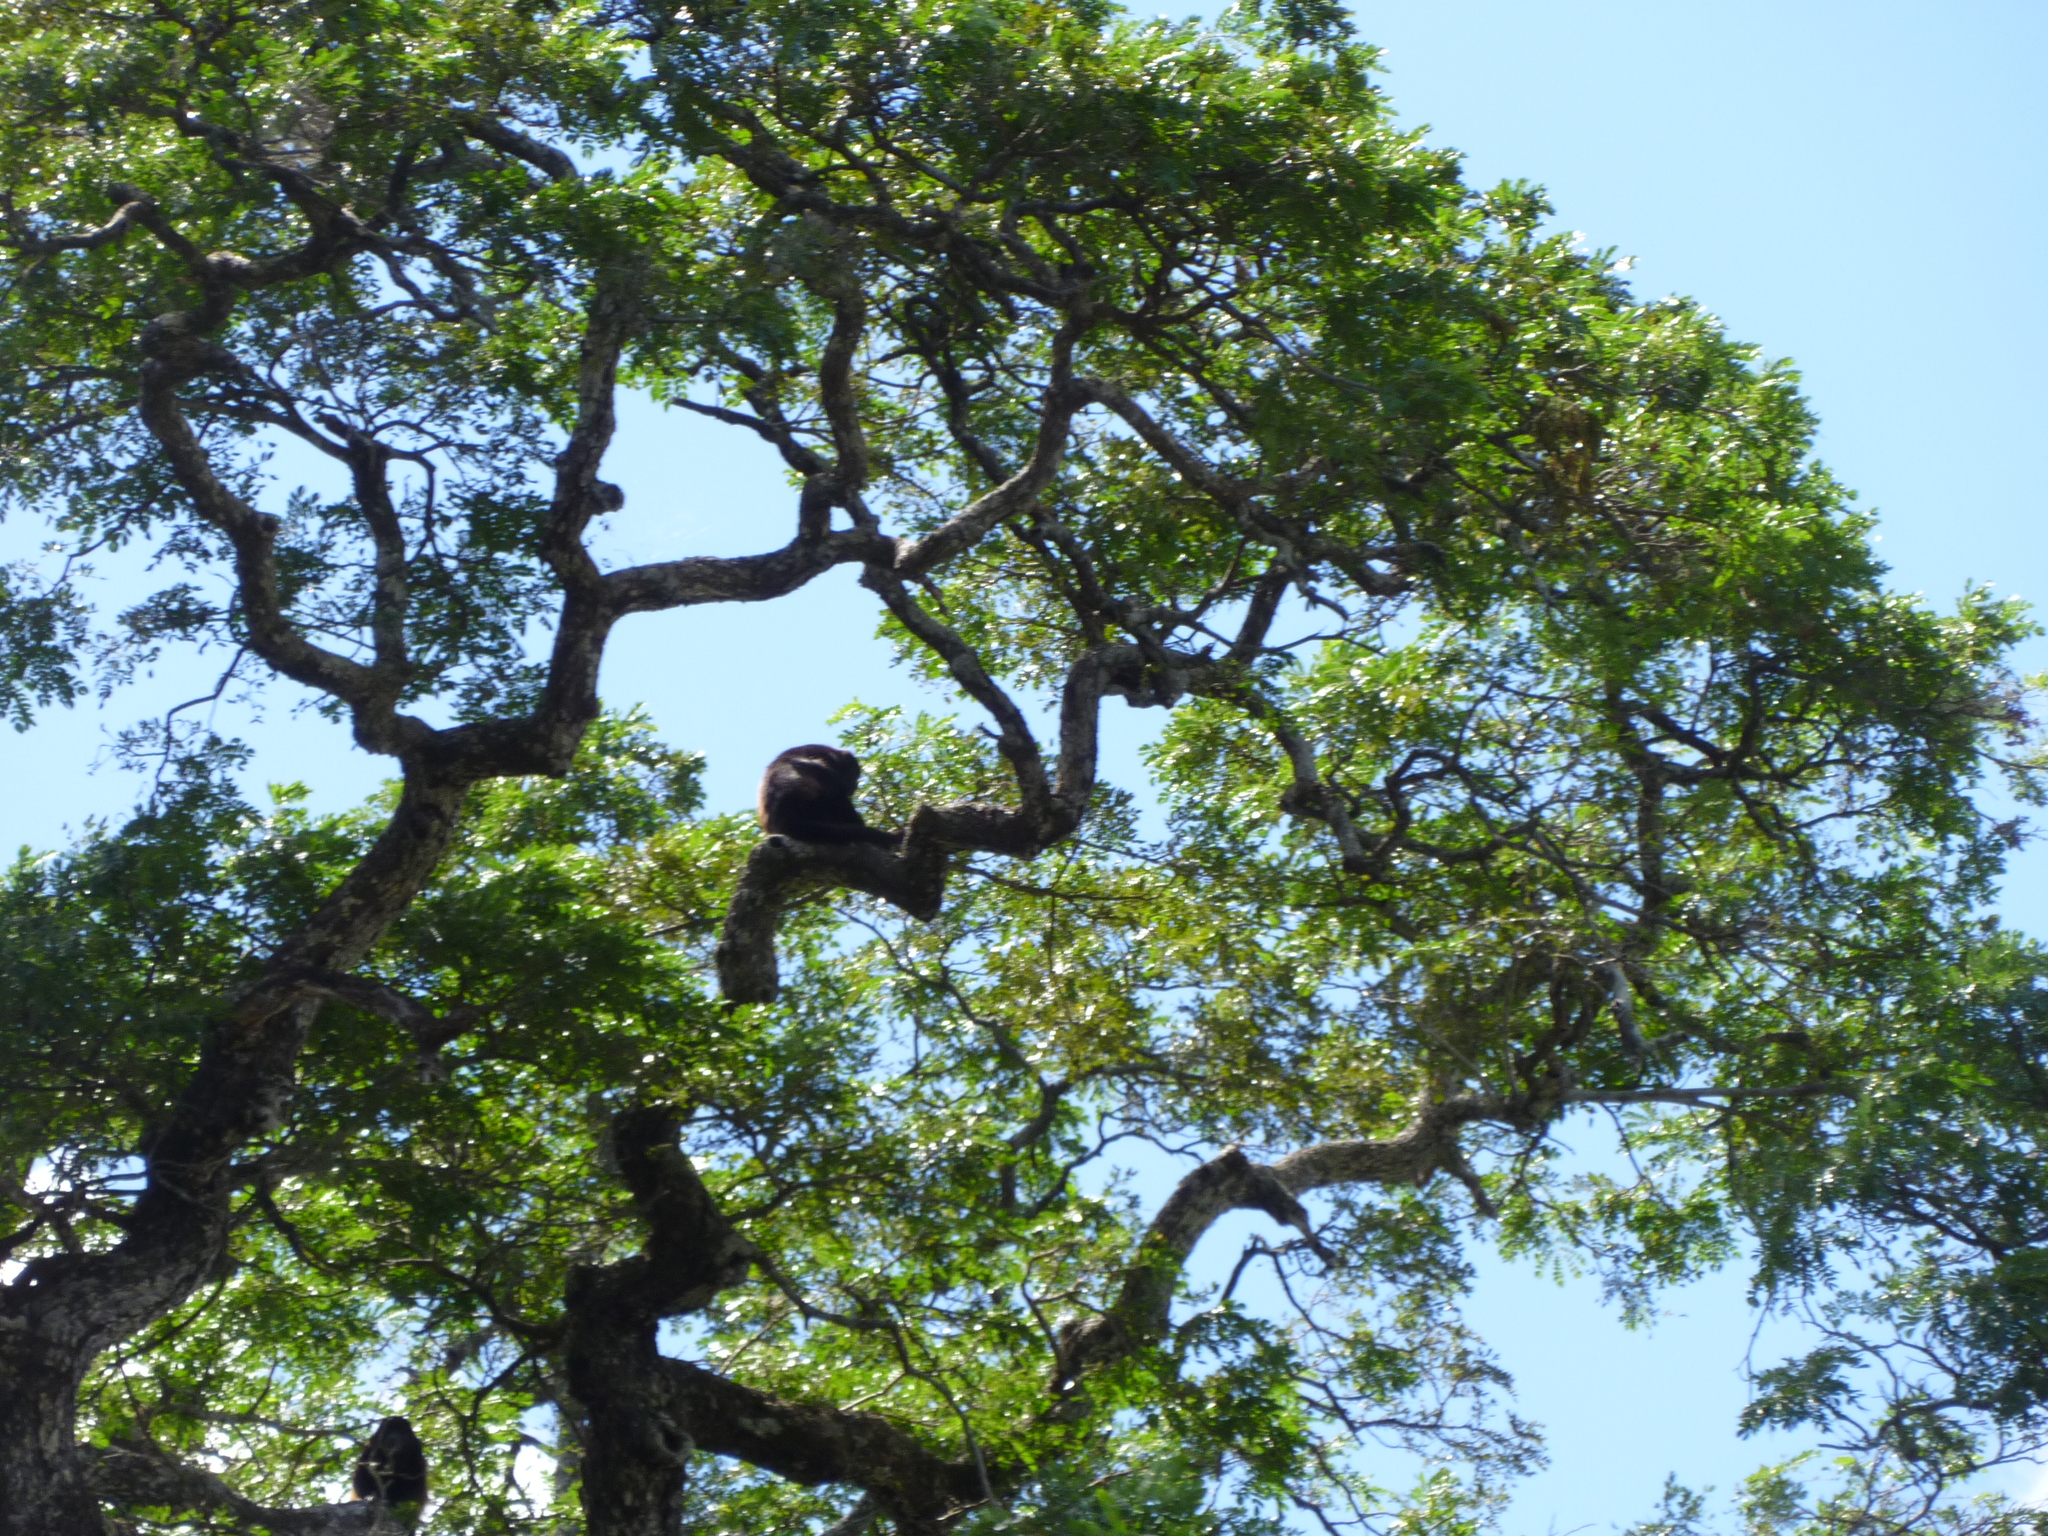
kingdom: Animalia
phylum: Chordata
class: Mammalia
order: Primates
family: Atelidae
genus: Alouatta
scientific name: Alouatta palliata
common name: Mantled howler
